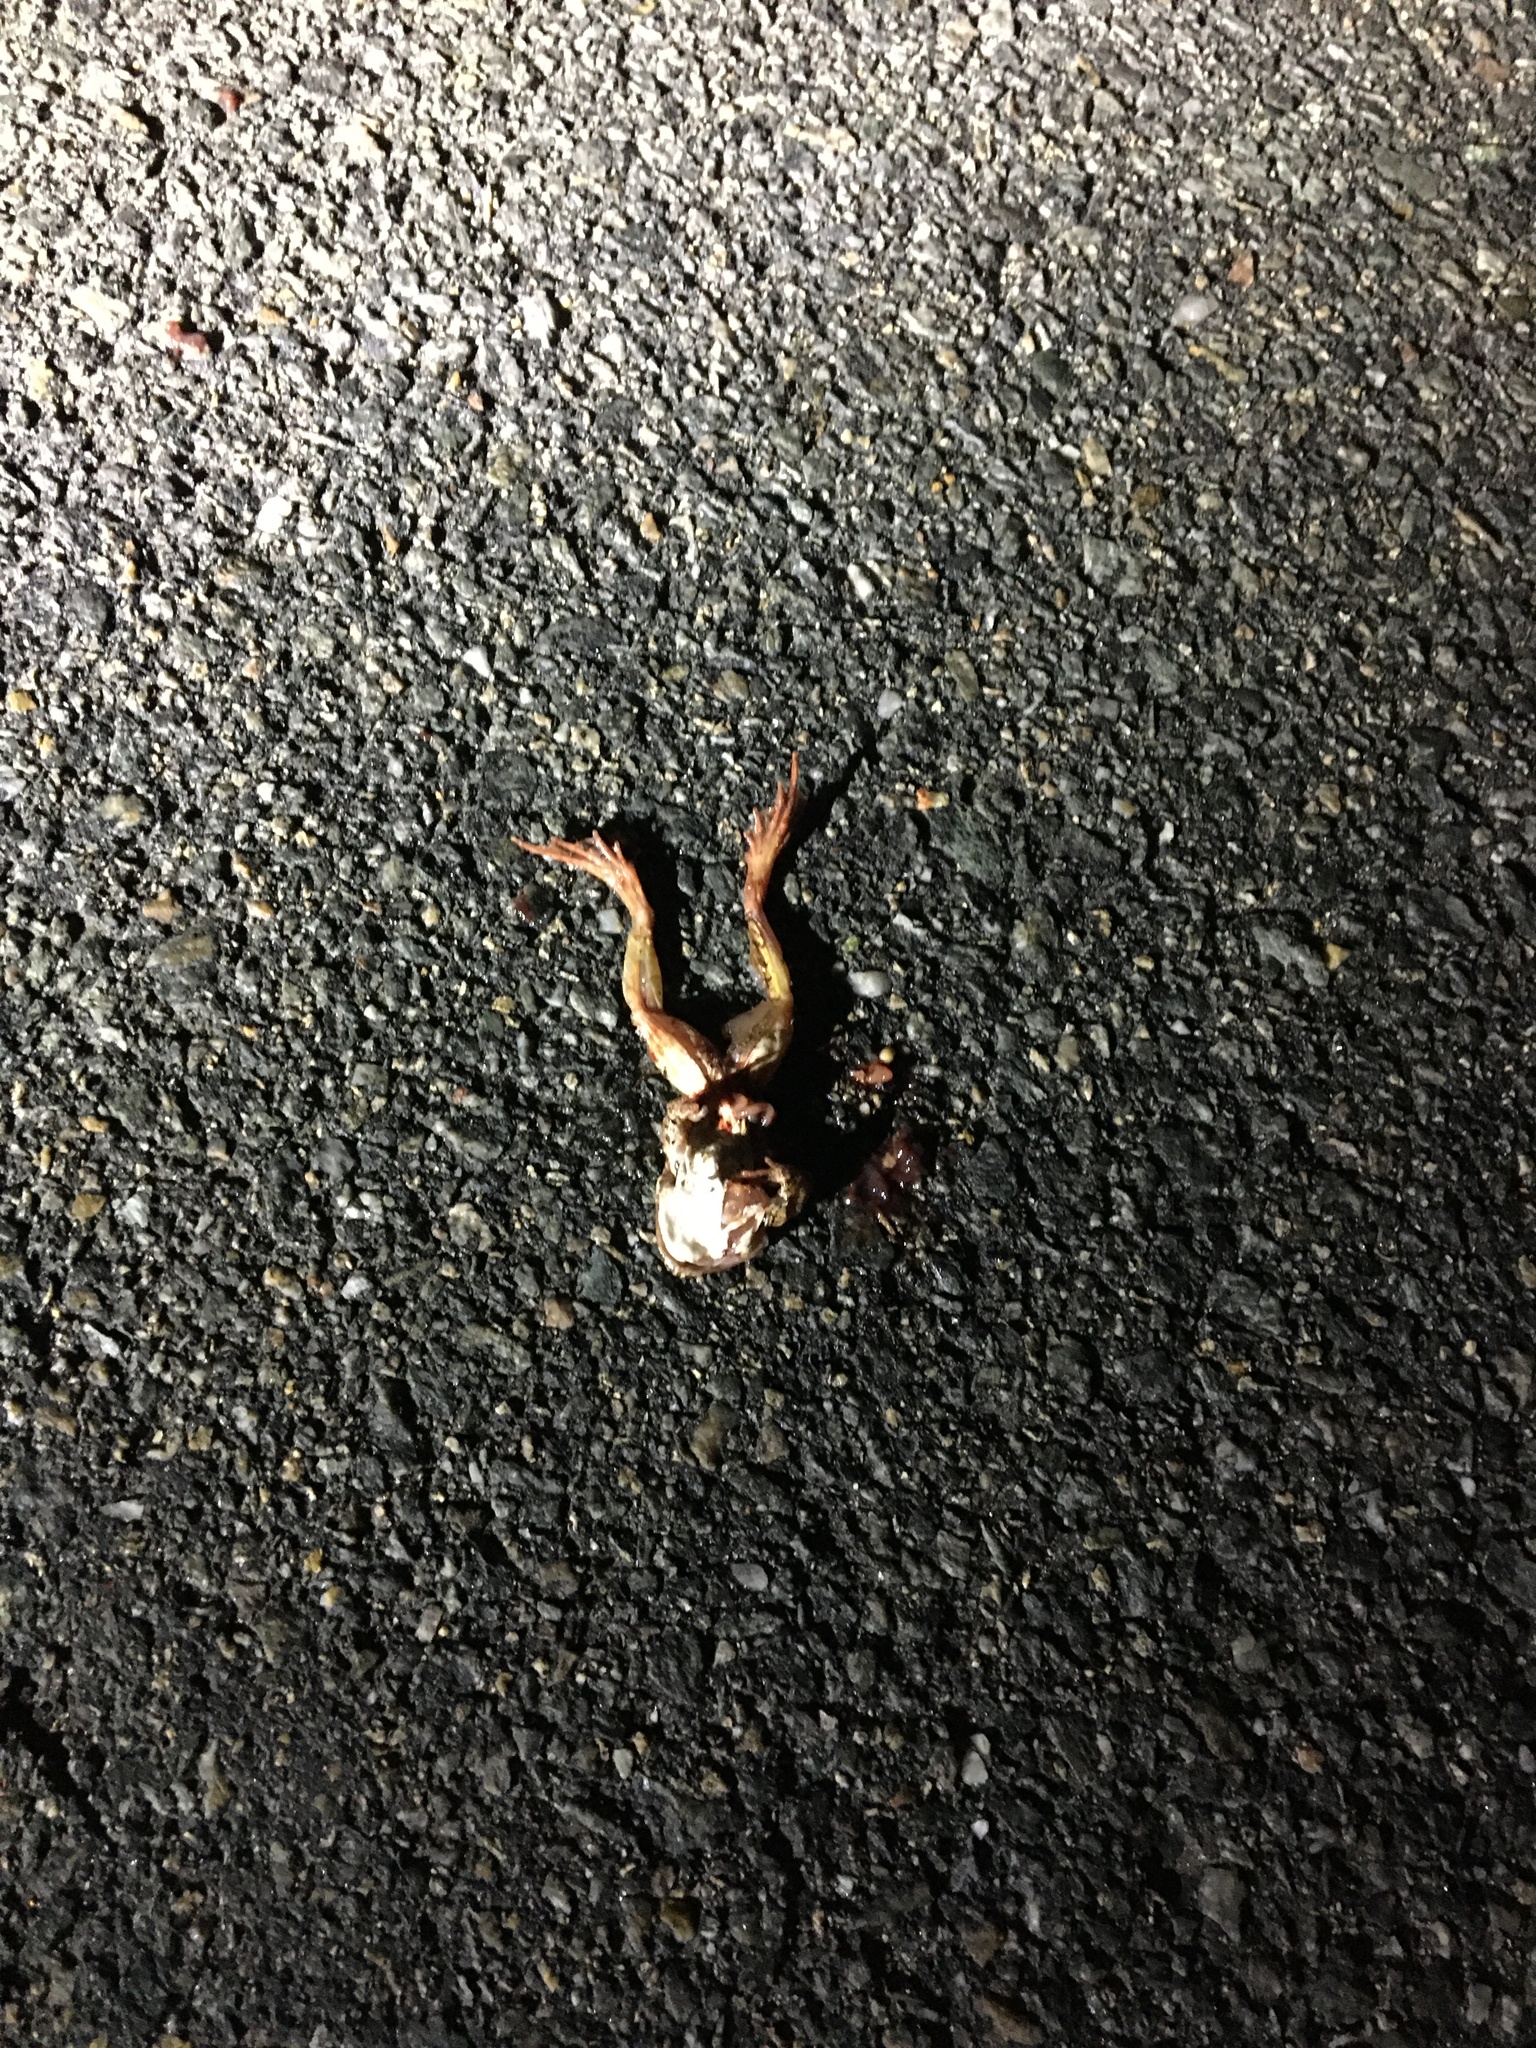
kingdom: Animalia
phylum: Chordata
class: Amphibia
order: Anura
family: Ranidae
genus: Lithobates
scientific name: Lithobates sylvaticus
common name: Wood frog
